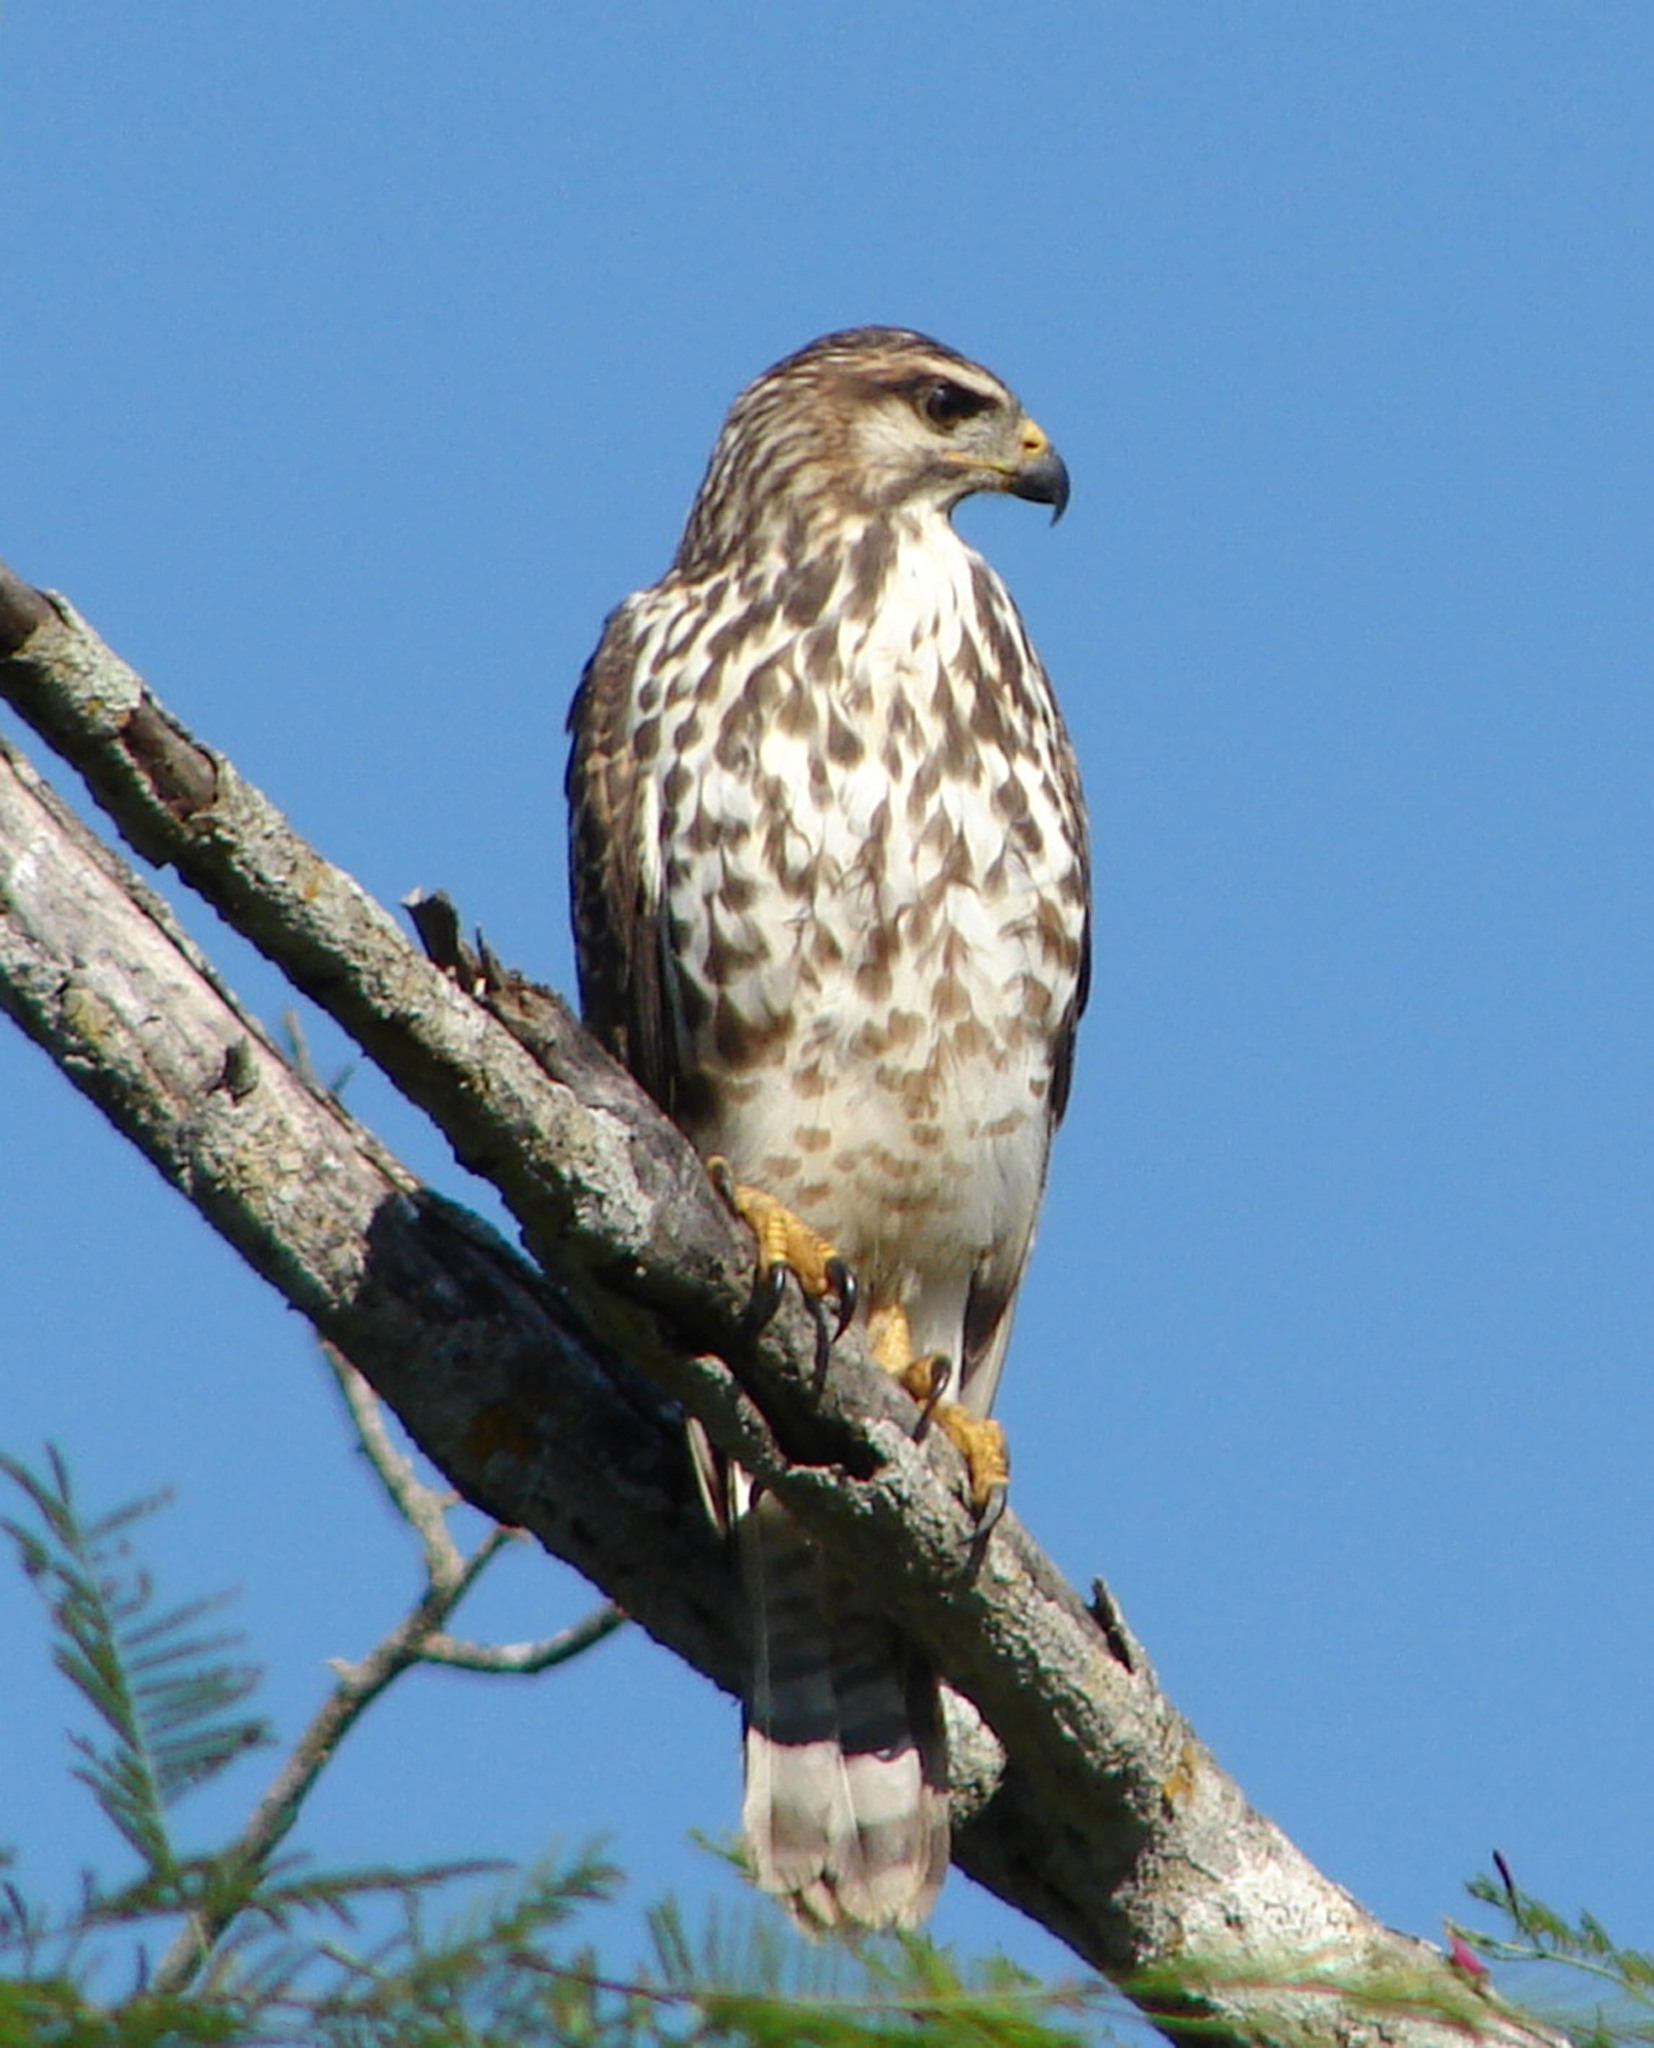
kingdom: Animalia
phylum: Chordata
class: Aves
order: Accipitriformes
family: Accipitridae
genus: Buteo
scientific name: Buteo nitidus
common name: Grey-lined hawk
